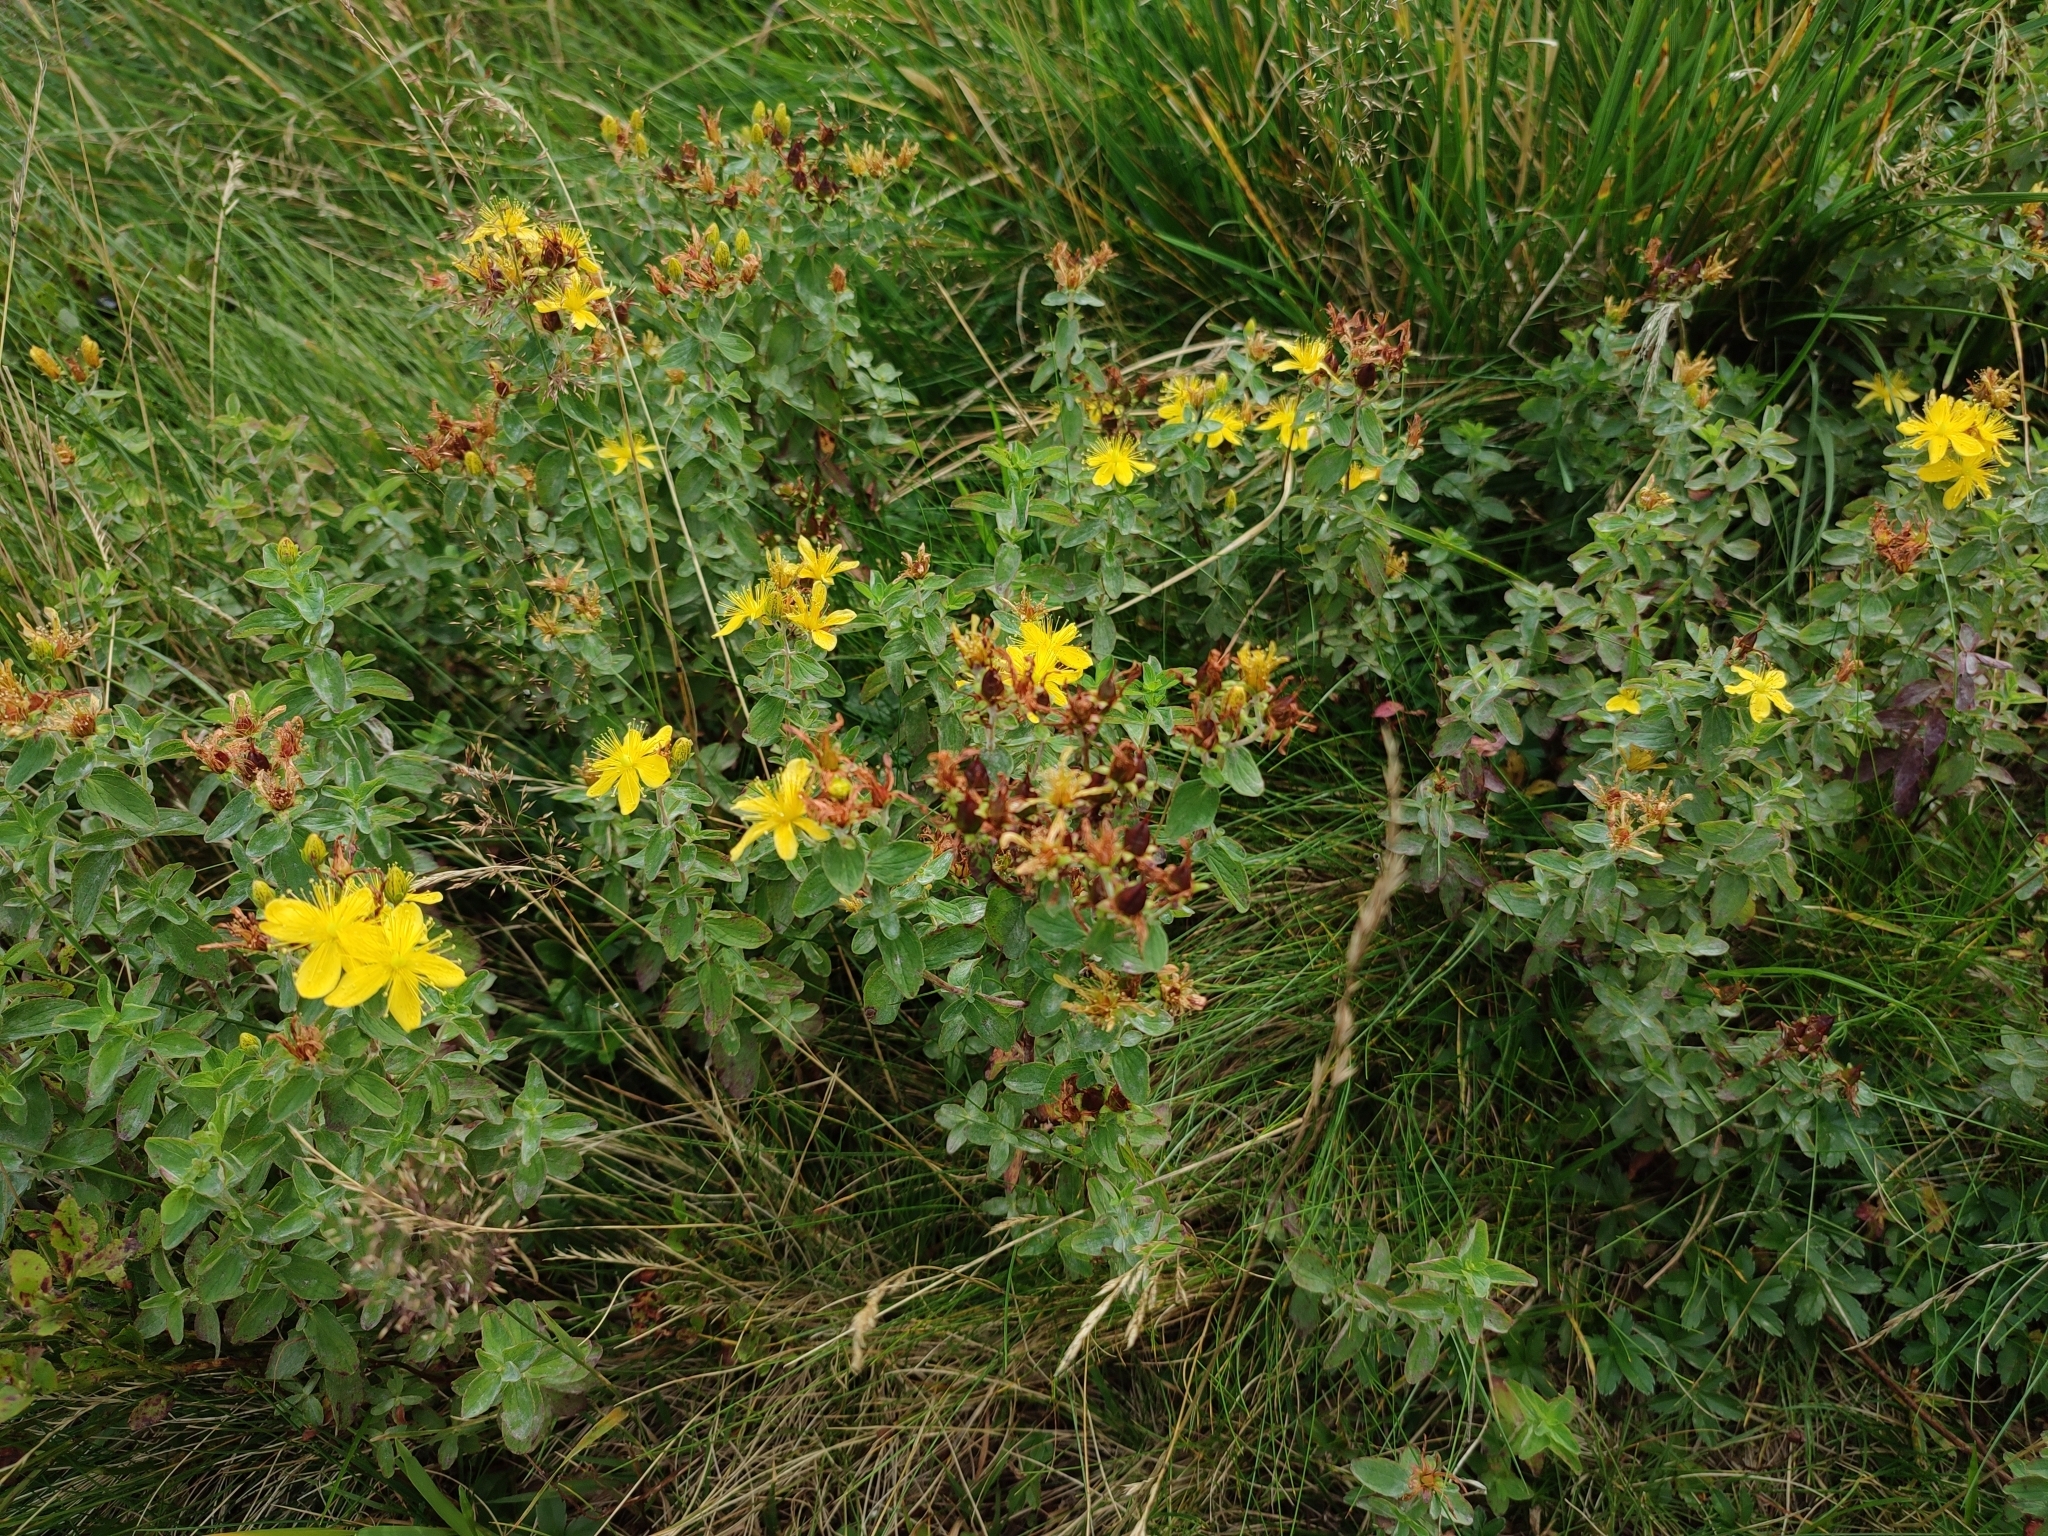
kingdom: Plantae
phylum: Tracheophyta
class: Magnoliopsida
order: Malpighiales
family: Hypericaceae
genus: Hypericum
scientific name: Hypericum maculatum
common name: Imperforate st. john's-wort
